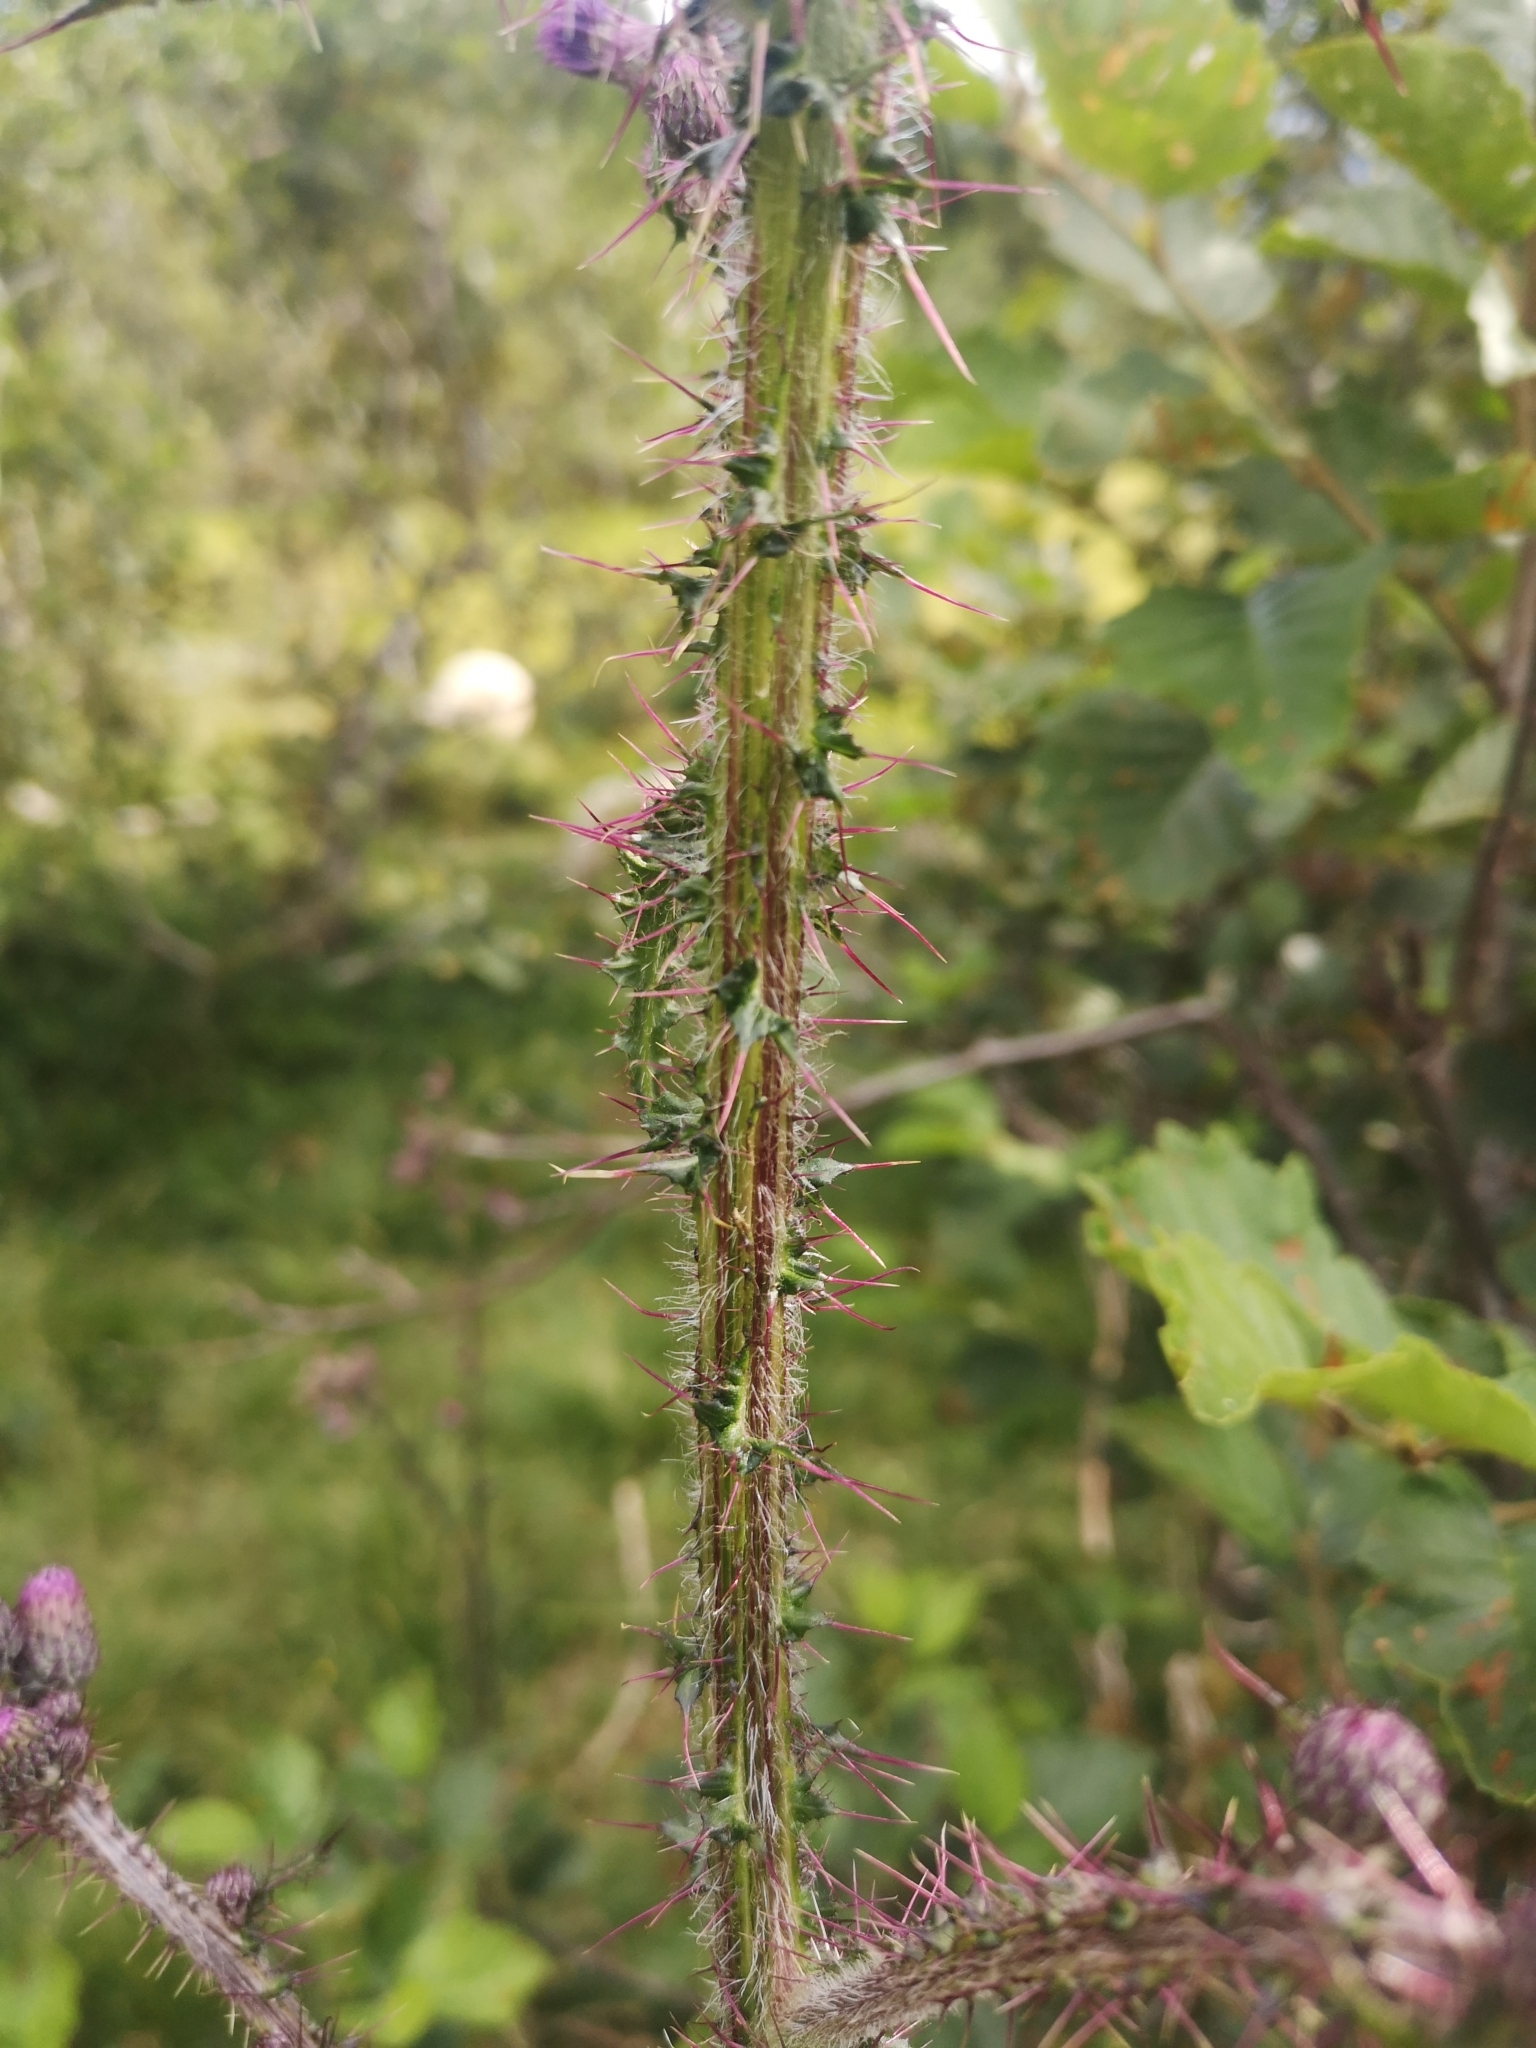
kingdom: Plantae
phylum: Tracheophyta
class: Magnoliopsida
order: Asterales
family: Asteraceae
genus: Cirsium
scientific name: Cirsium palustre
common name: Marsh thistle
